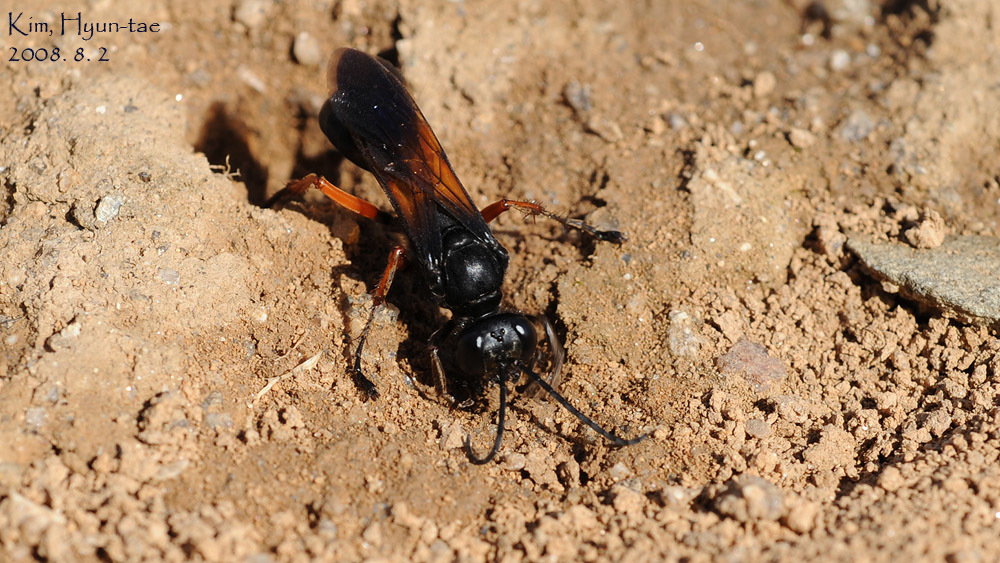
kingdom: Animalia
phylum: Arthropoda
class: Insecta
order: Hymenoptera
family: Sphecidae
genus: Sphex
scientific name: Sphex subtruncatus
